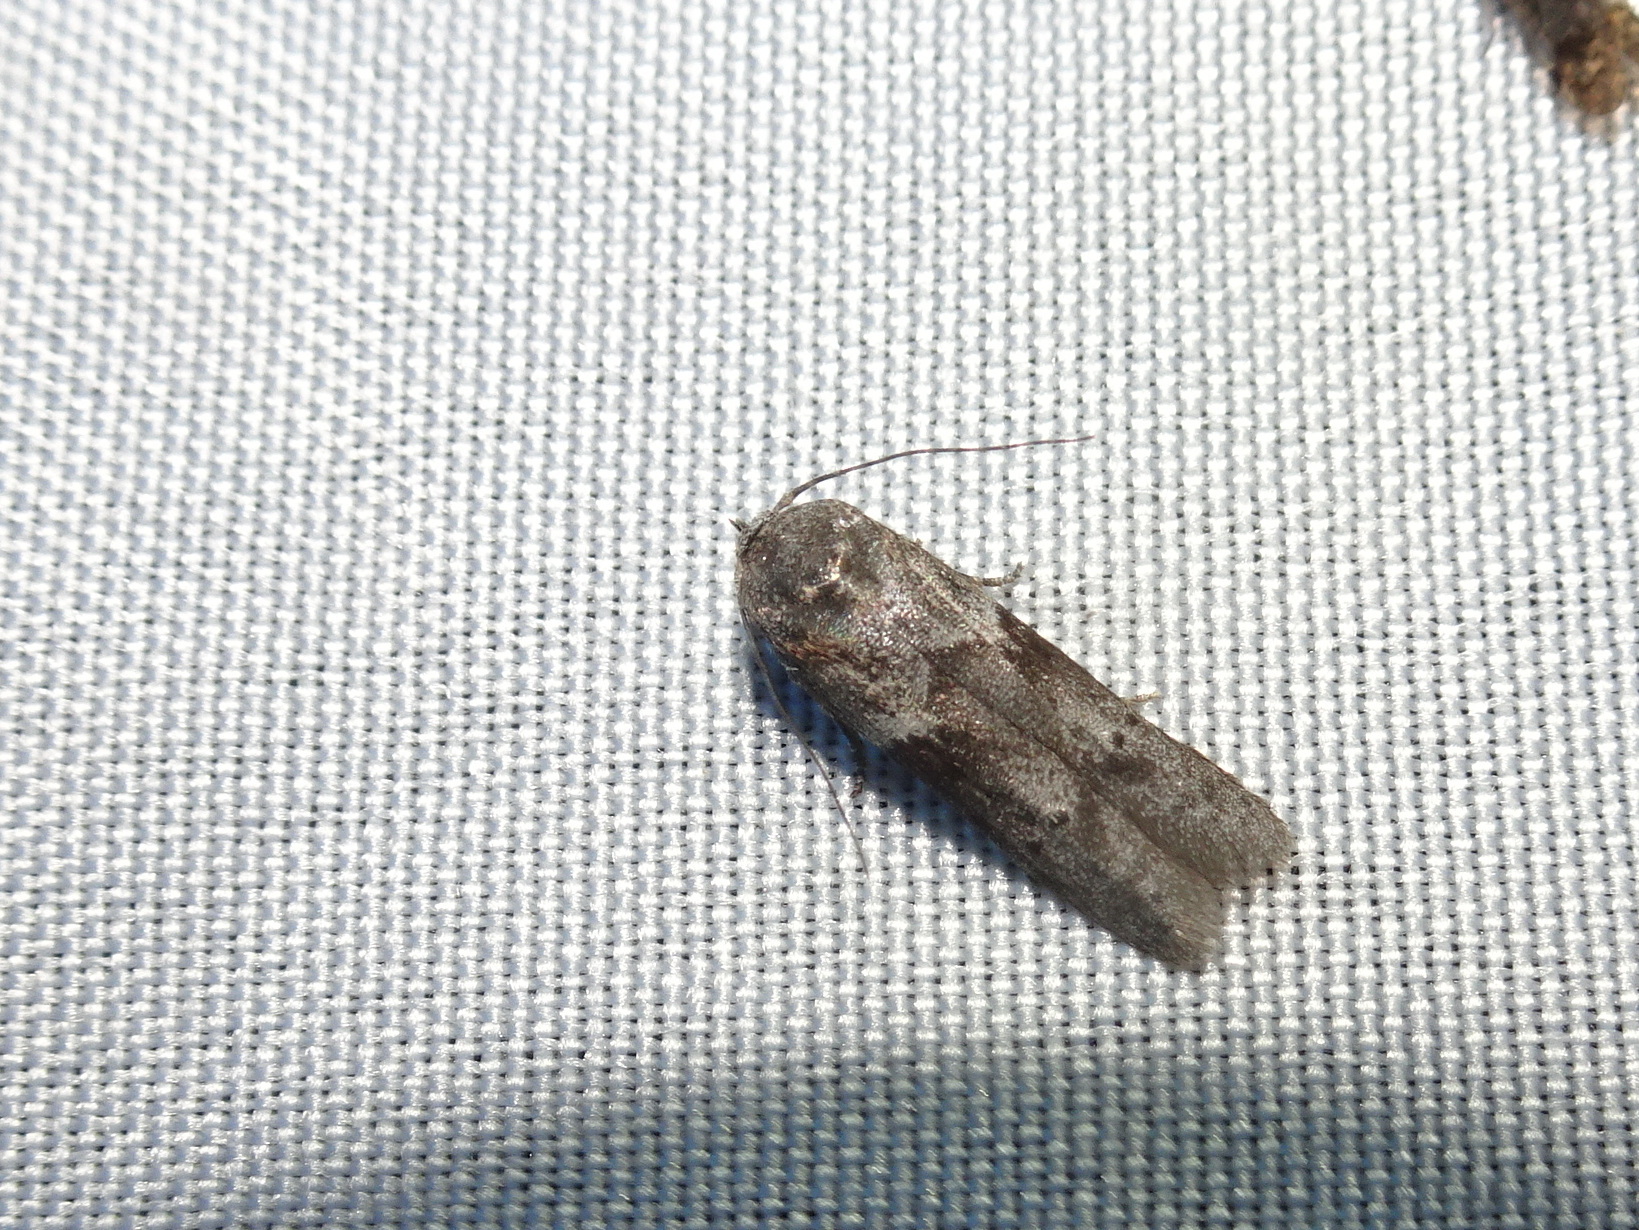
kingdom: Animalia
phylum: Arthropoda
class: Insecta
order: Lepidoptera
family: Blastobasidae
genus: Blastobasis
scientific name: Blastobasis glandulella
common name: Acorn moth
